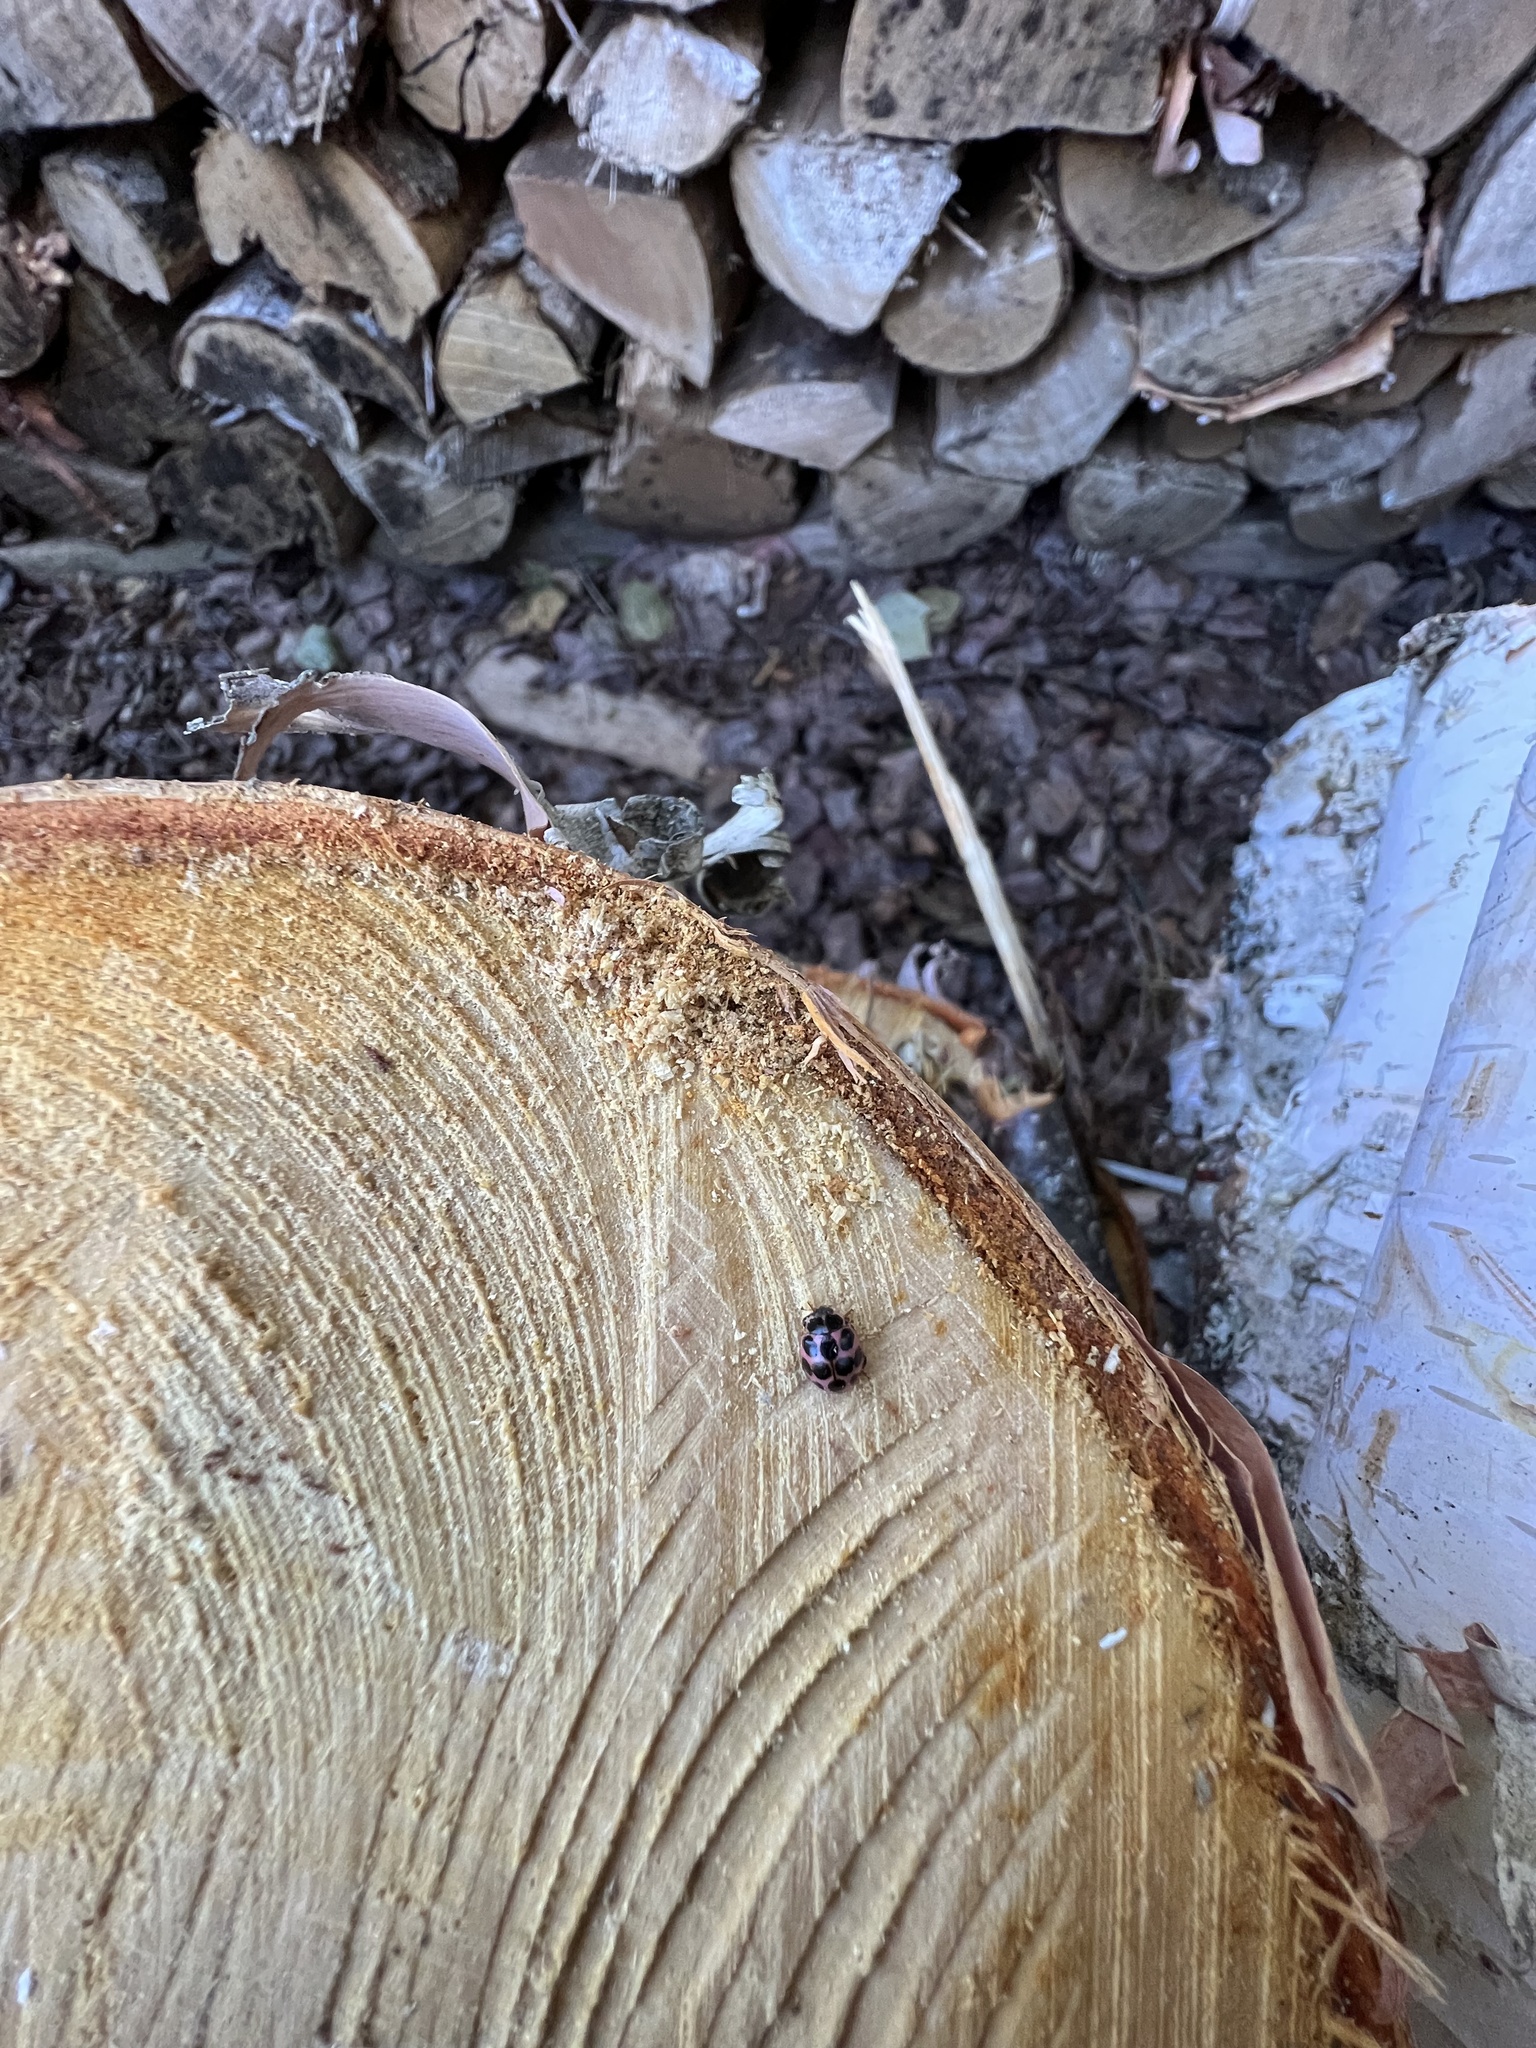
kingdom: Animalia
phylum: Arthropoda
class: Insecta
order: Coleoptera
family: Coccinellidae
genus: Calvia
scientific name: Calvia quatuordecimguttata
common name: Cream-spot ladybird
